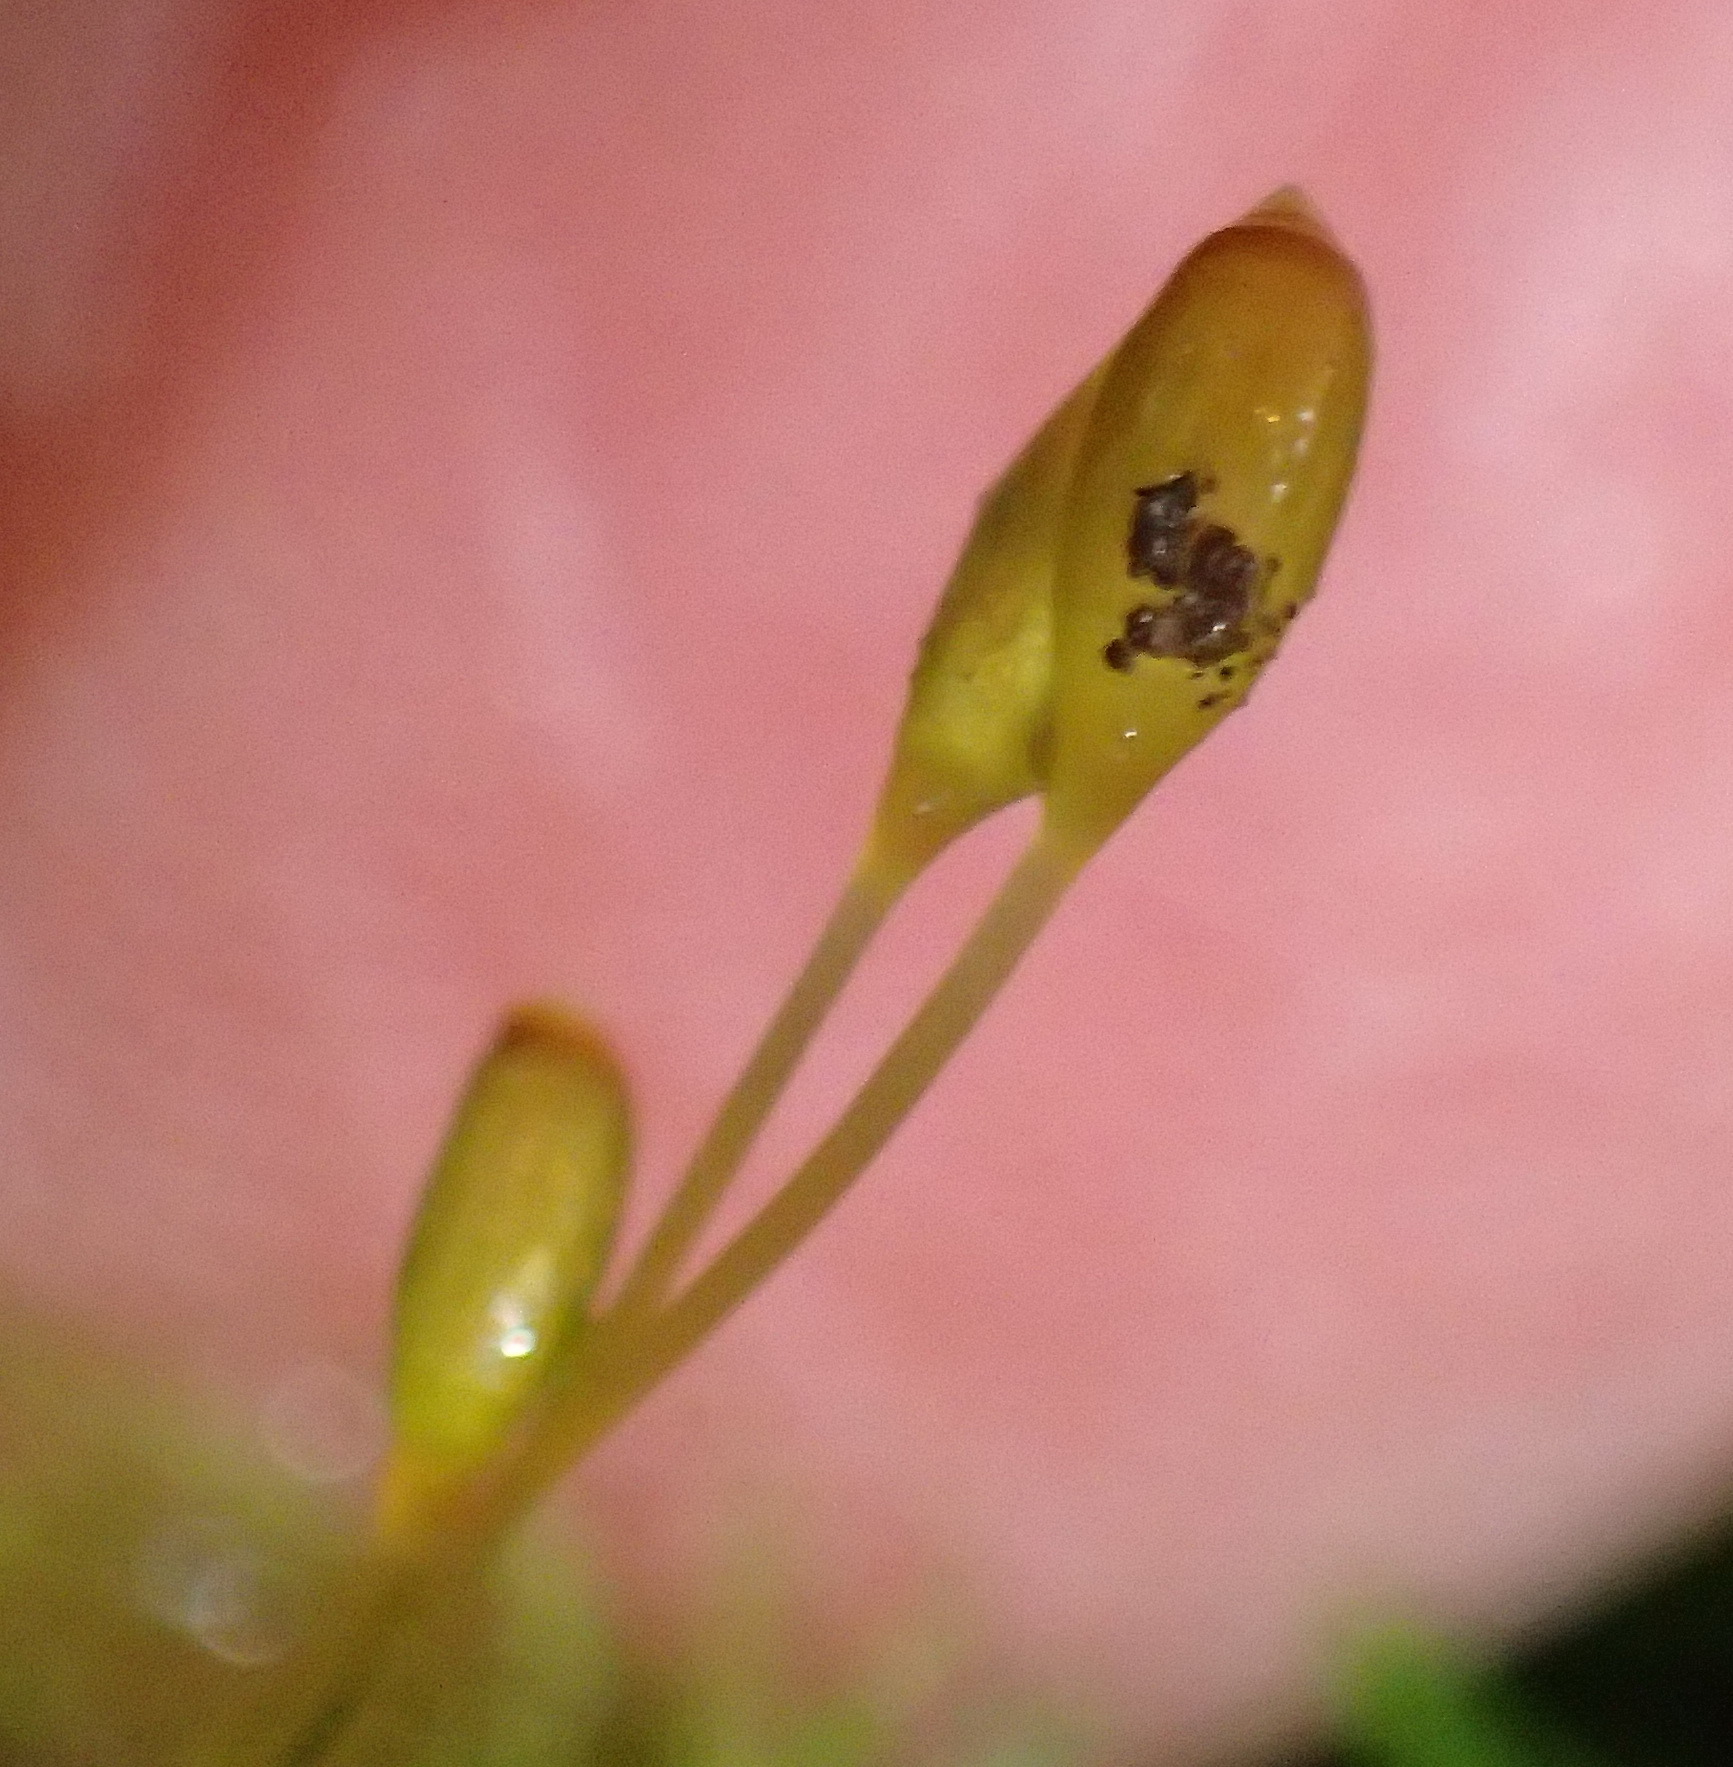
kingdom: Plantae
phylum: Bryophyta
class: Bryopsida
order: Rhizogoniales
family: Calomniaceae
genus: Pyrrhobryum
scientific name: Pyrrhobryum spiniforme
